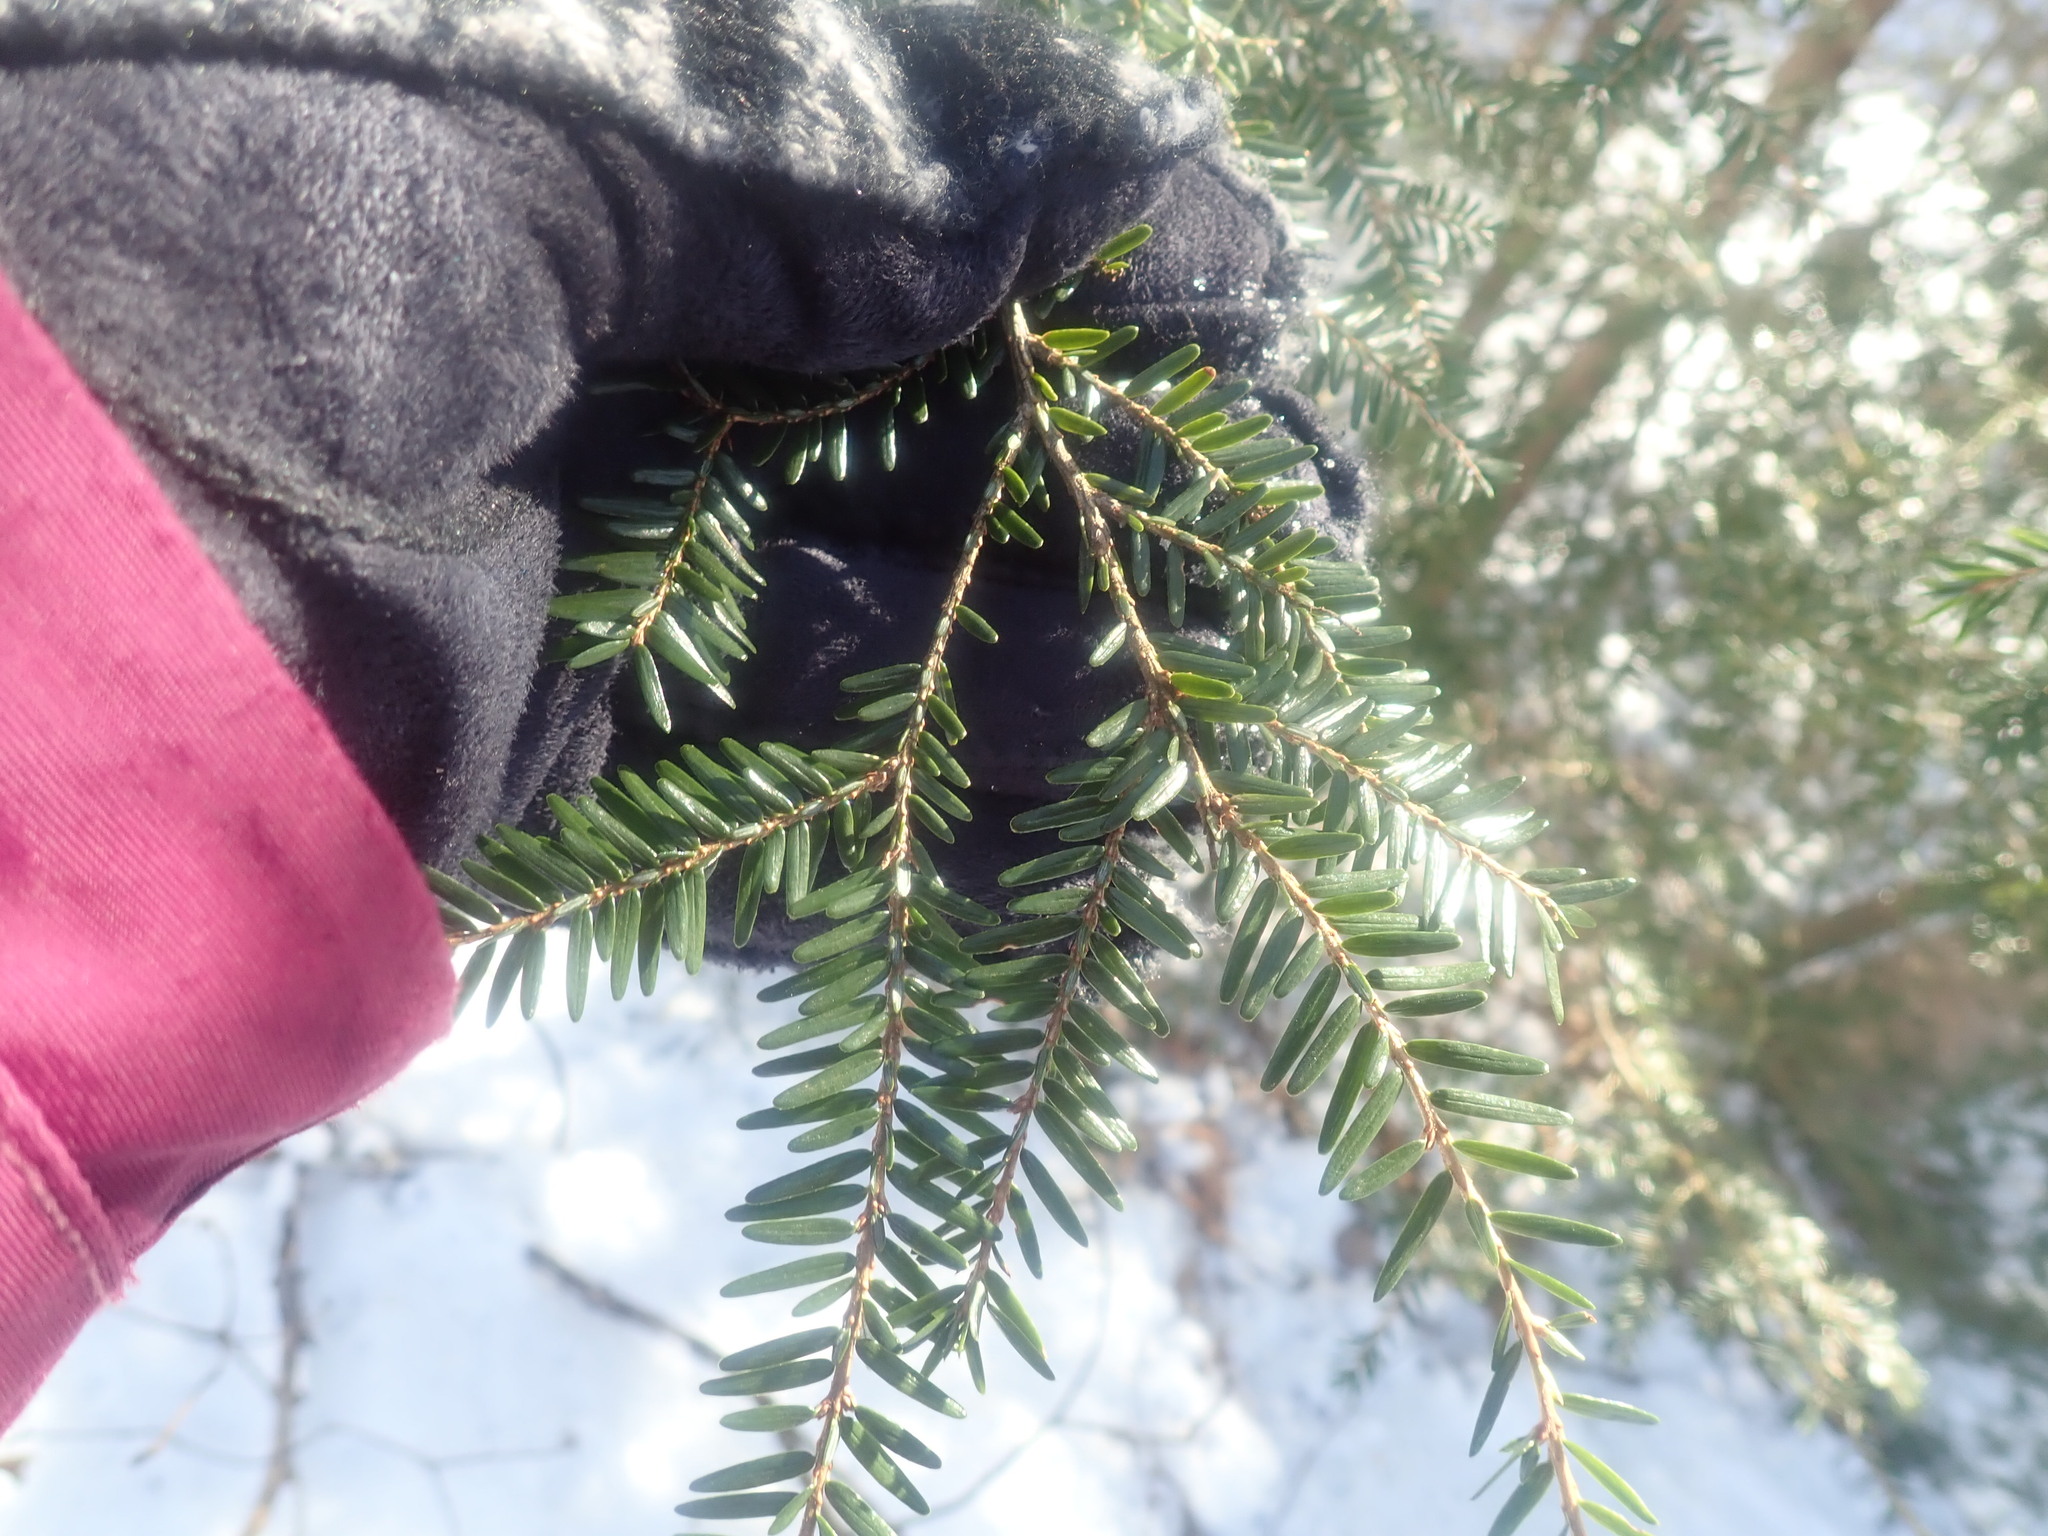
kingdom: Plantae
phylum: Tracheophyta
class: Pinopsida
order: Pinales
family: Pinaceae
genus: Tsuga
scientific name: Tsuga canadensis
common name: Eastern hemlock
